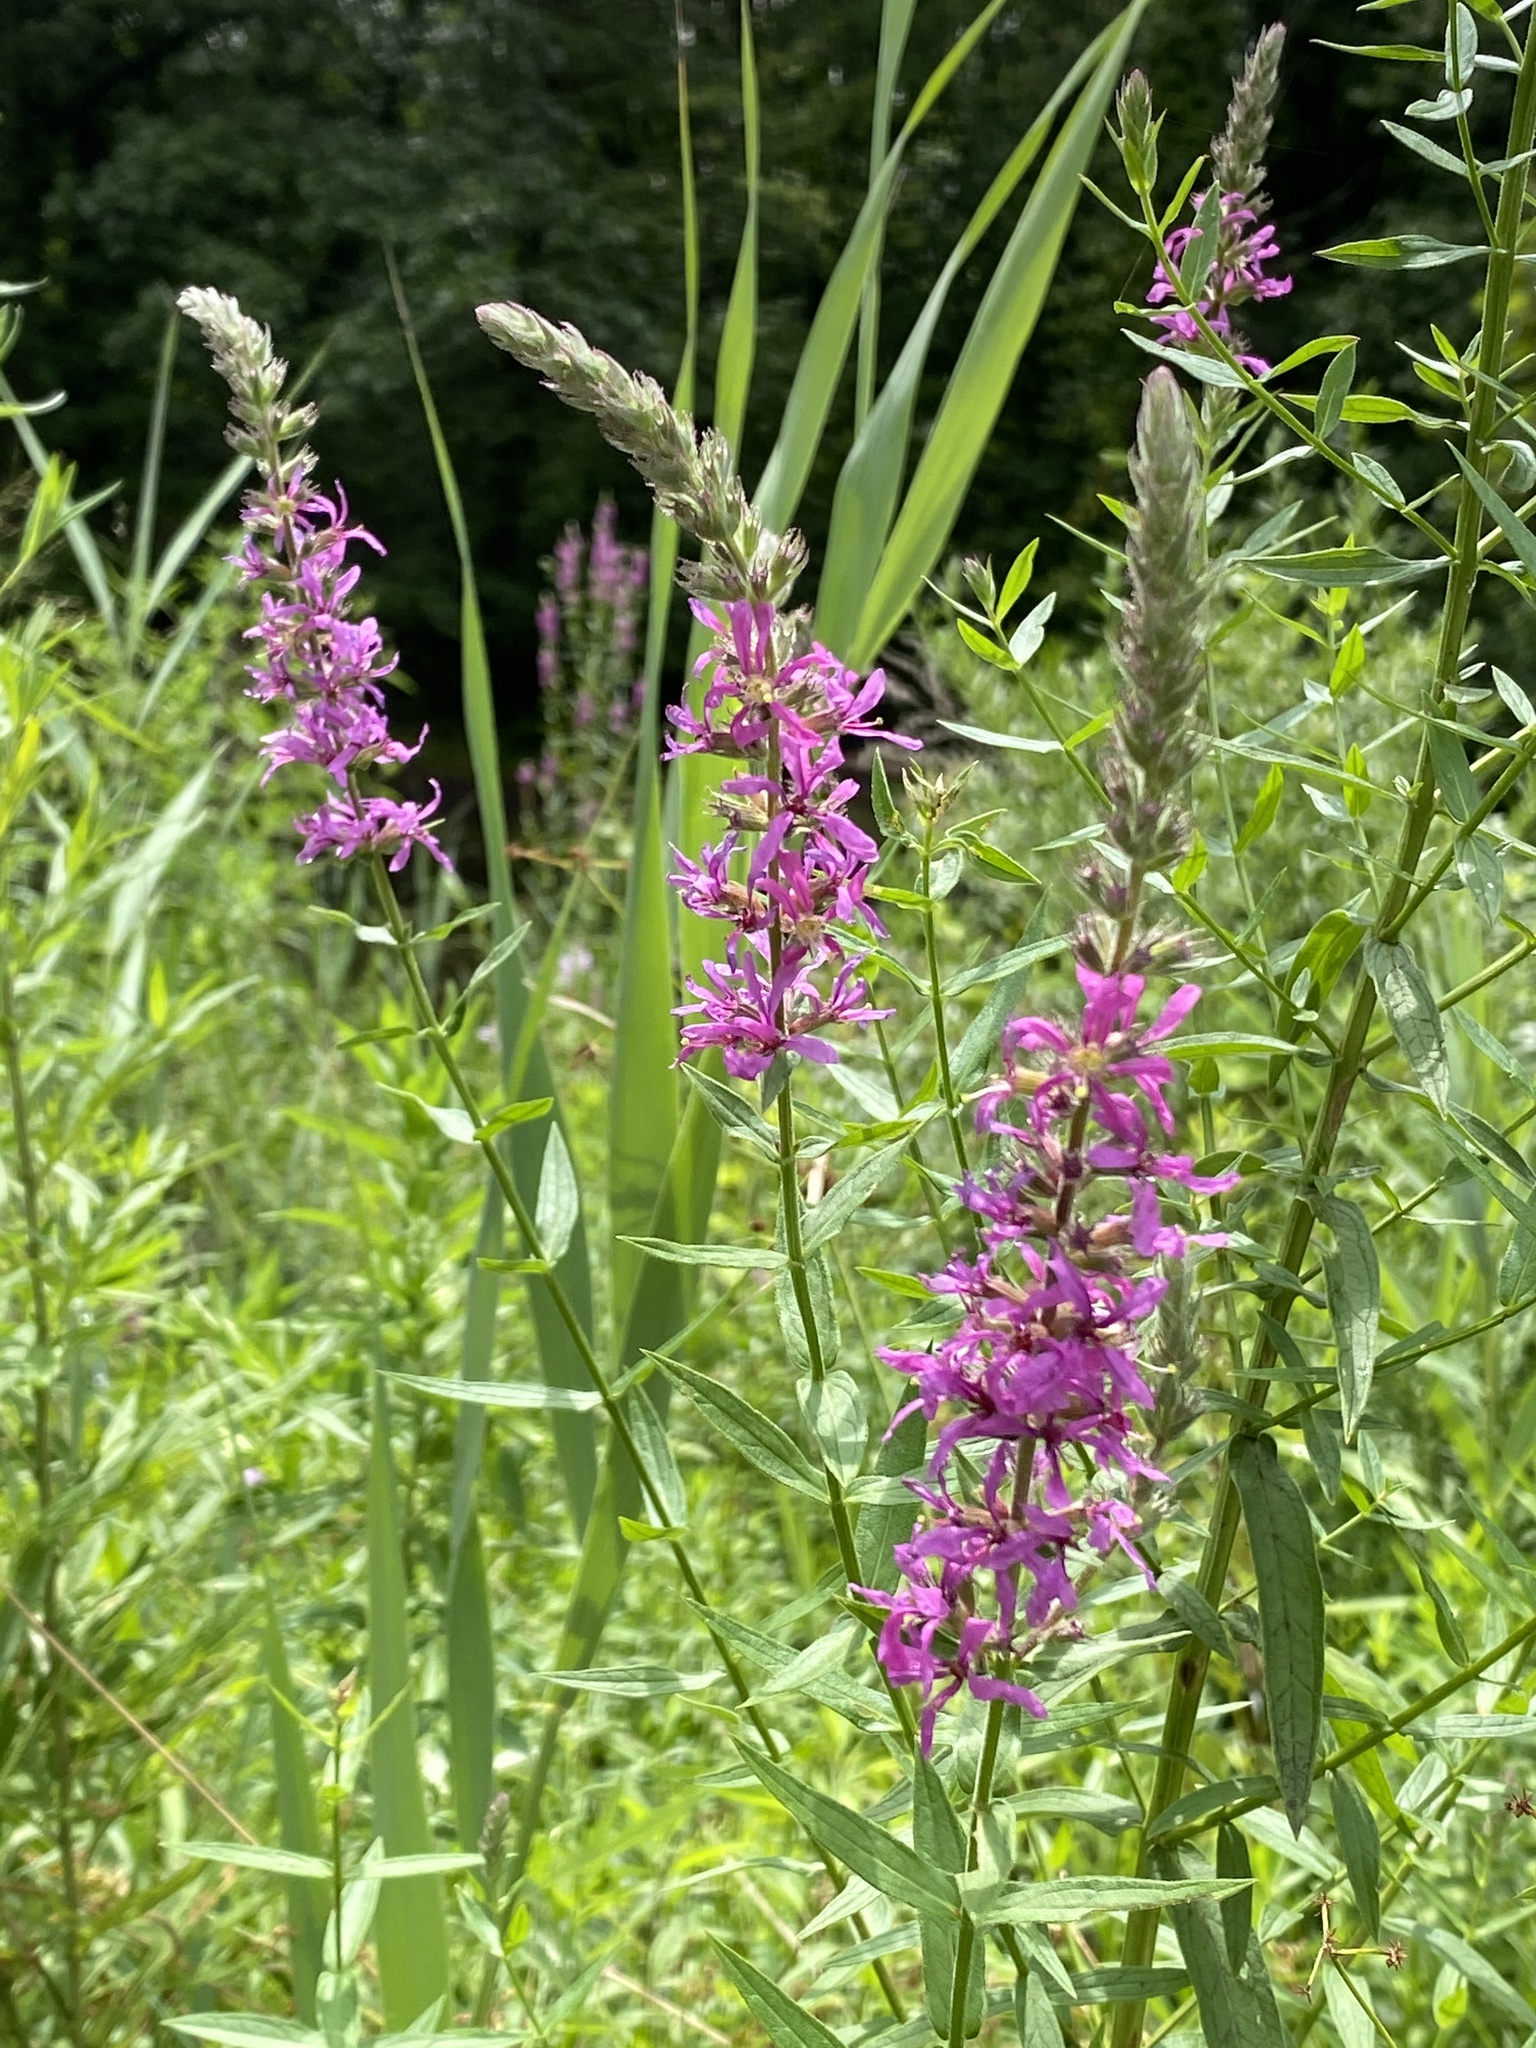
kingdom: Plantae
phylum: Tracheophyta
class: Magnoliopsida
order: Myrtales
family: Lythraceae
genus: Lythrum
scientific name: Lythrum salicaria
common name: Purple loosestrife
